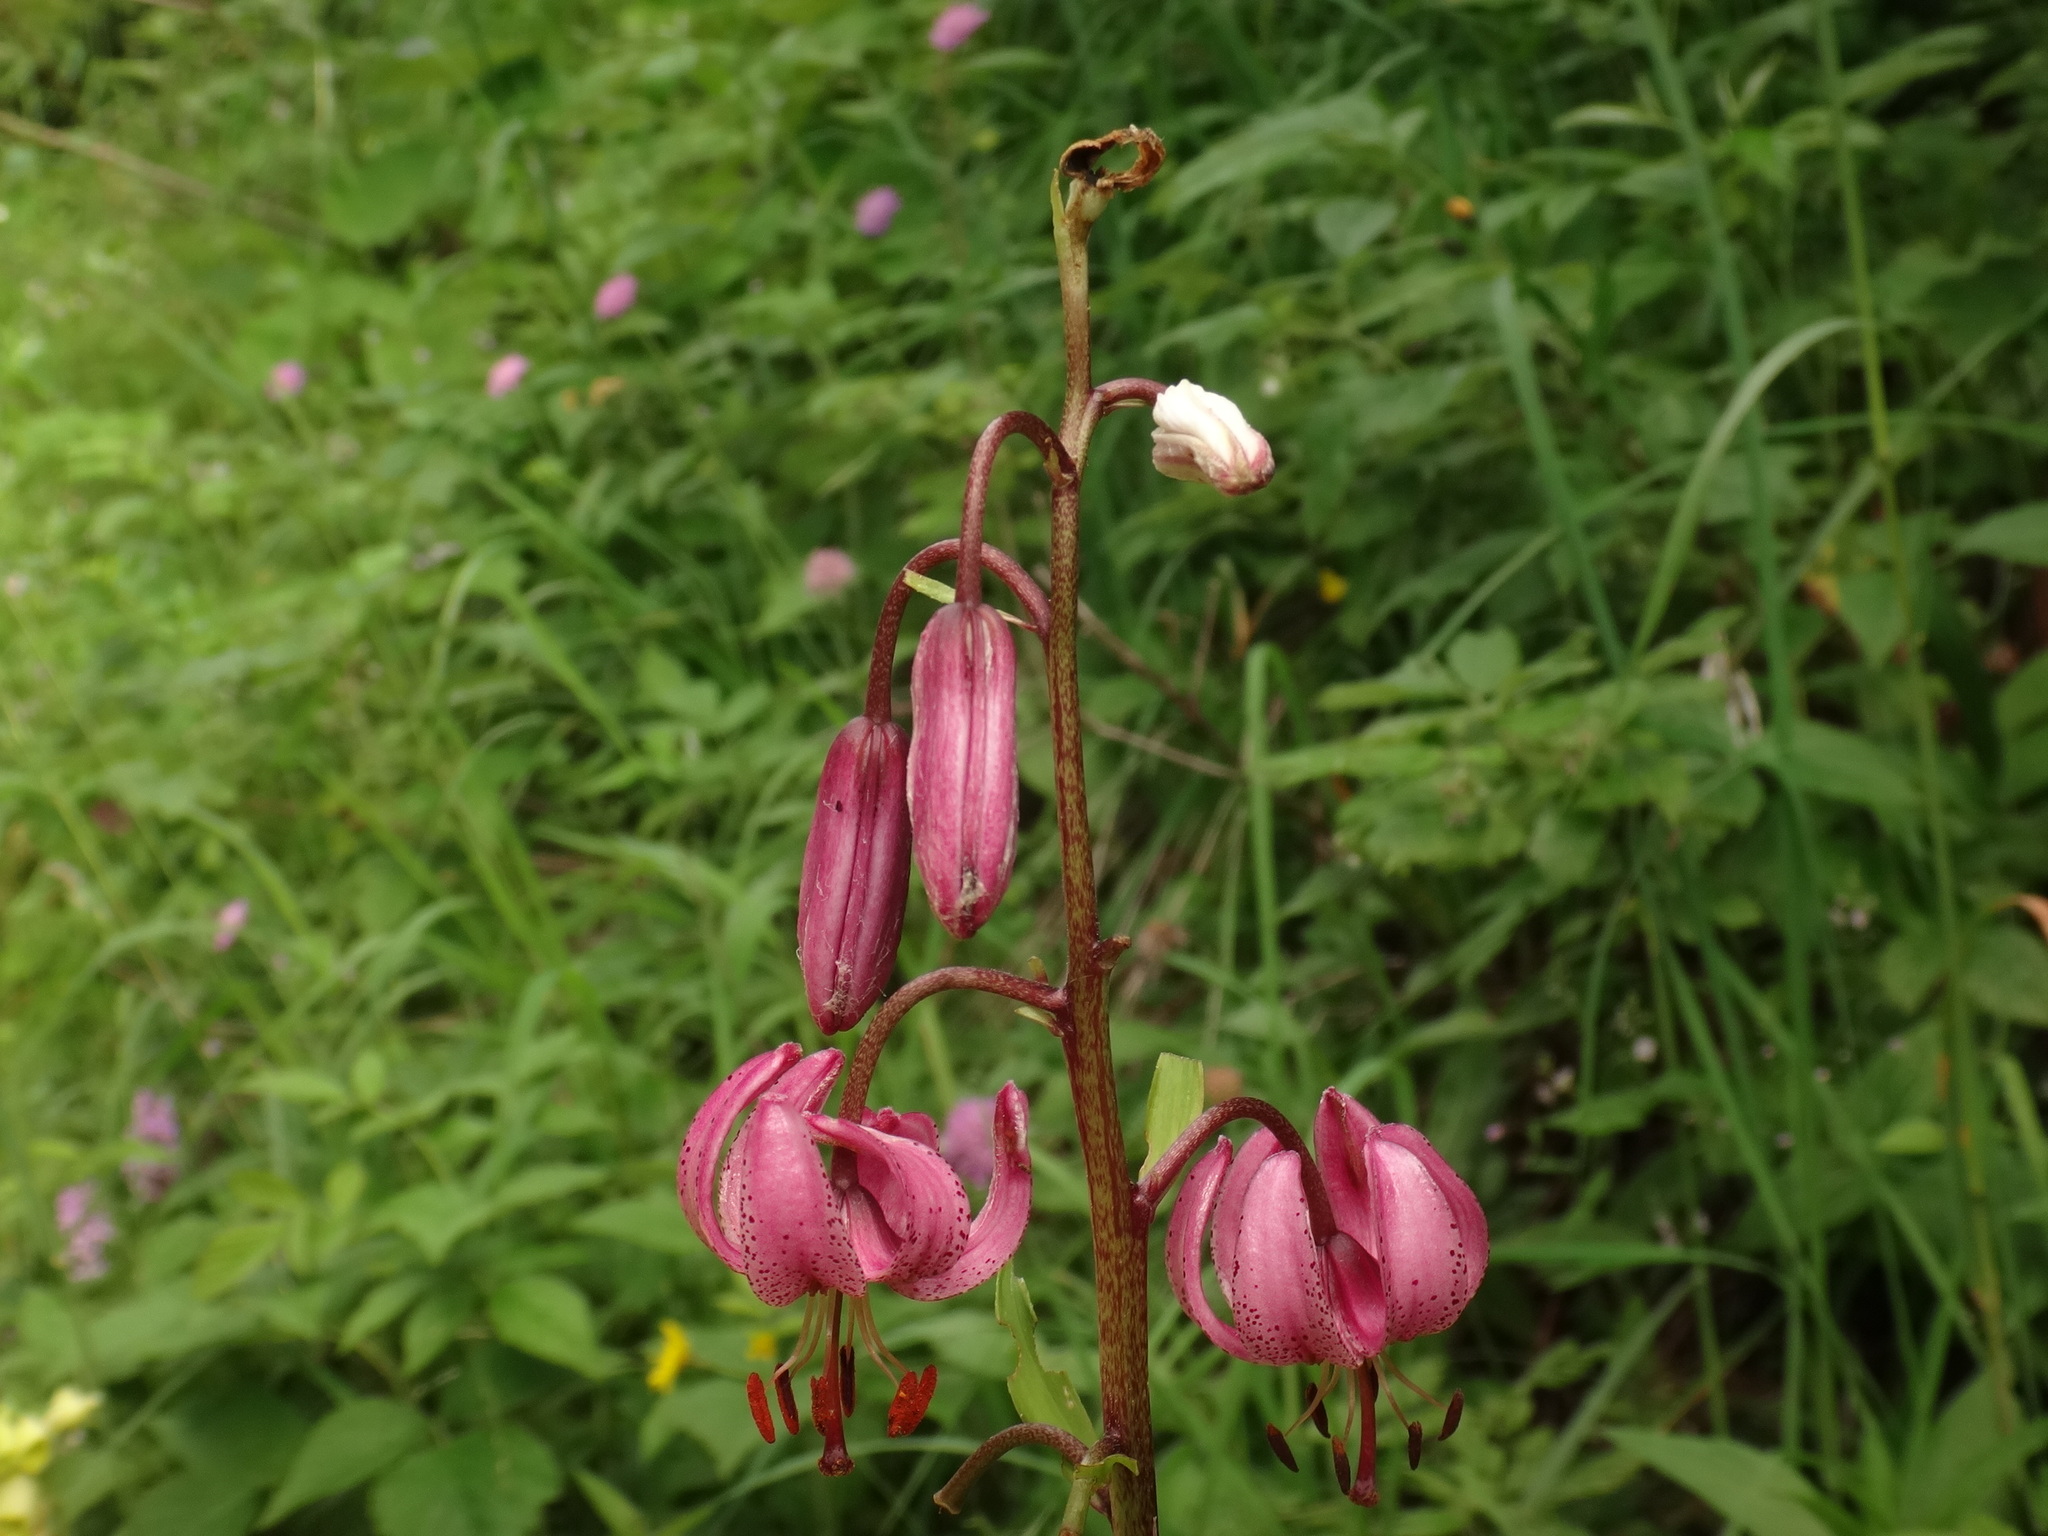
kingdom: Plantae
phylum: Tracheophyta
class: Liliopsida
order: Liliales
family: Liliaceae
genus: Lilium
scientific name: Lilium martagon
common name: Martagon lily
